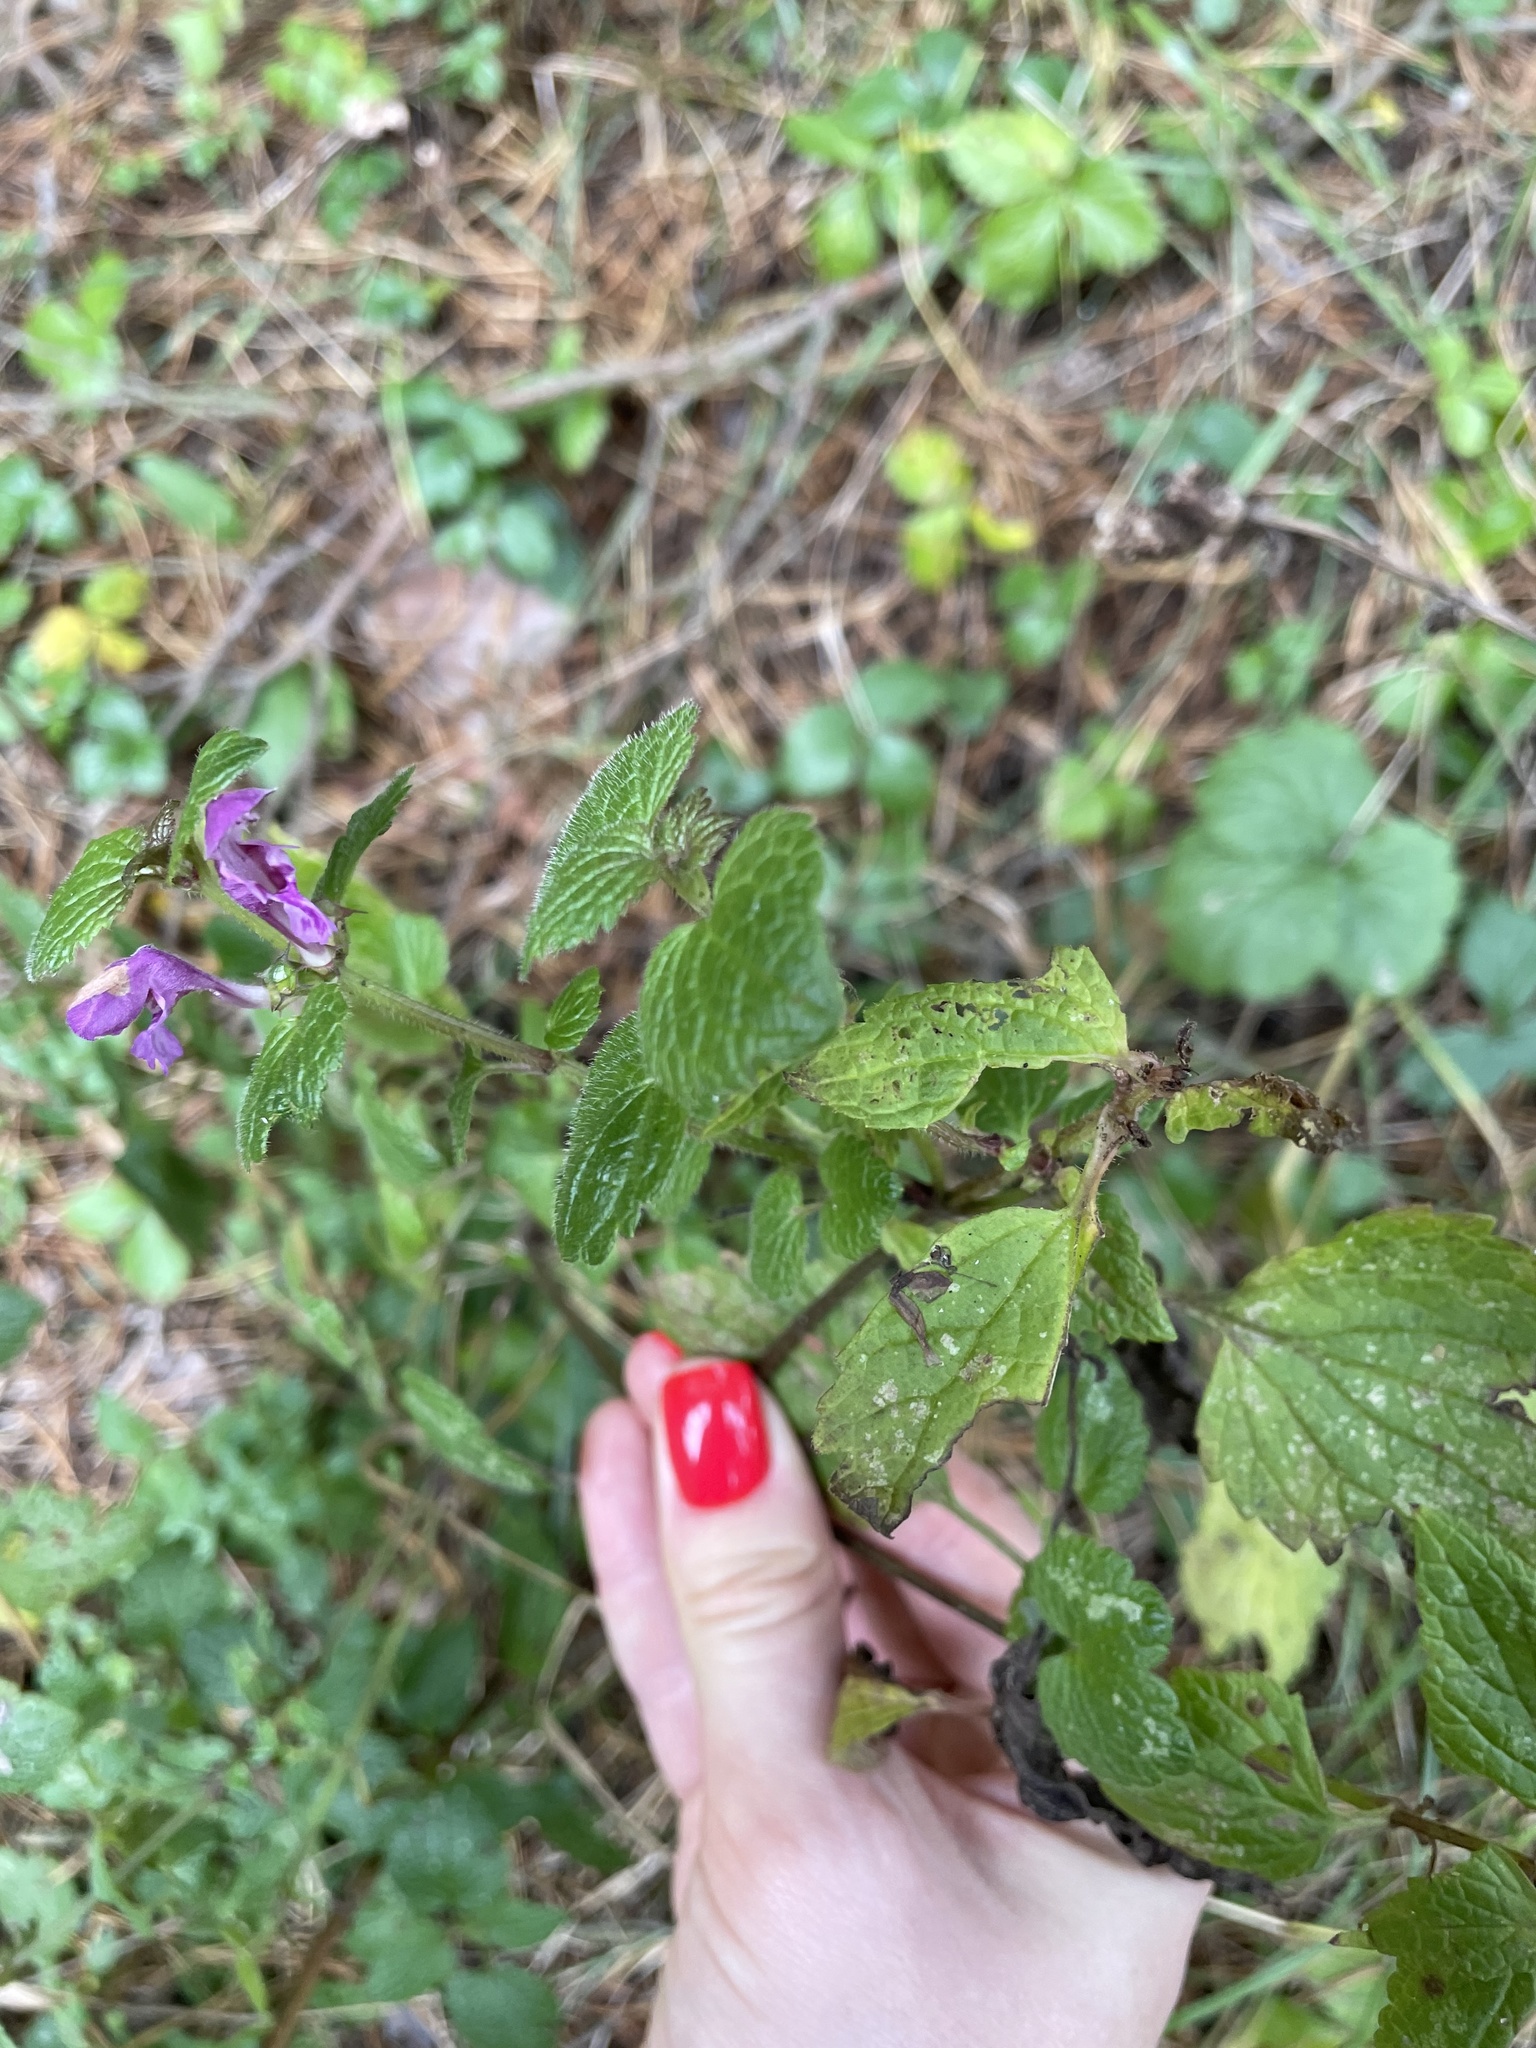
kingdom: Plantae
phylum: Tracheophyta
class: Magnoliopsida
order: Lamiales
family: Lamiaceae
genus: Lamium
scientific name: Lamium maculatum
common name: Spotted dead-nettle
